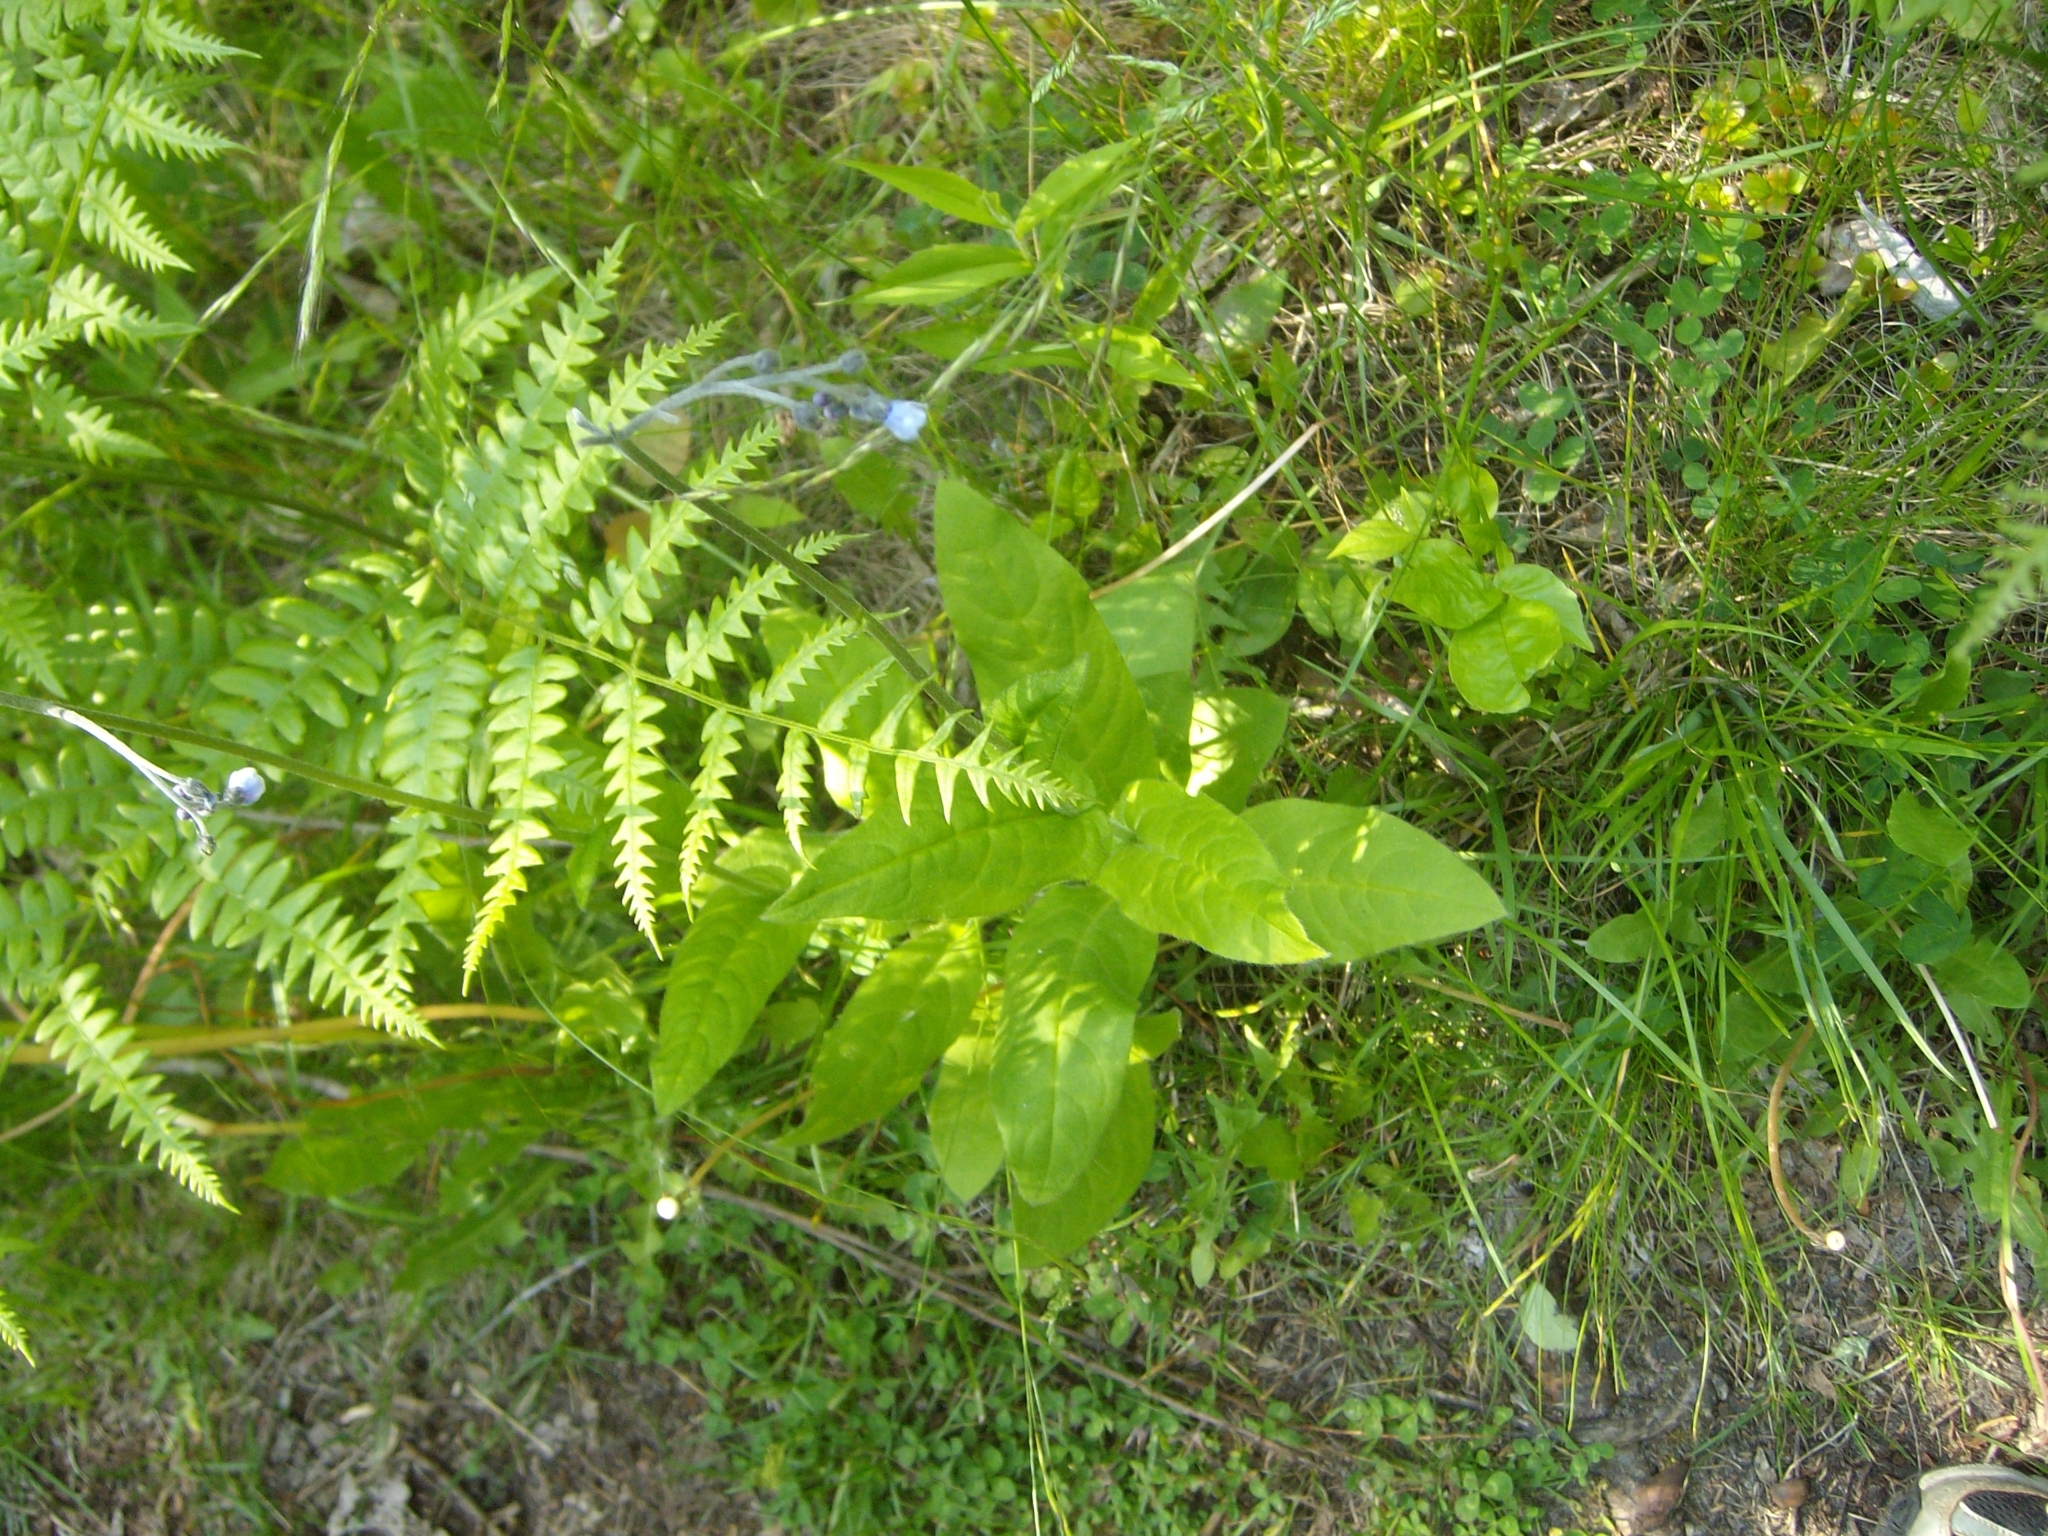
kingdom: Plantae
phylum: Tracheophyta
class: Magnoliopsida
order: Boraginales
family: Boraginaceae
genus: Andersonglossum
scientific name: Andersonglossum boreale
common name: Northern hound's-tongue
